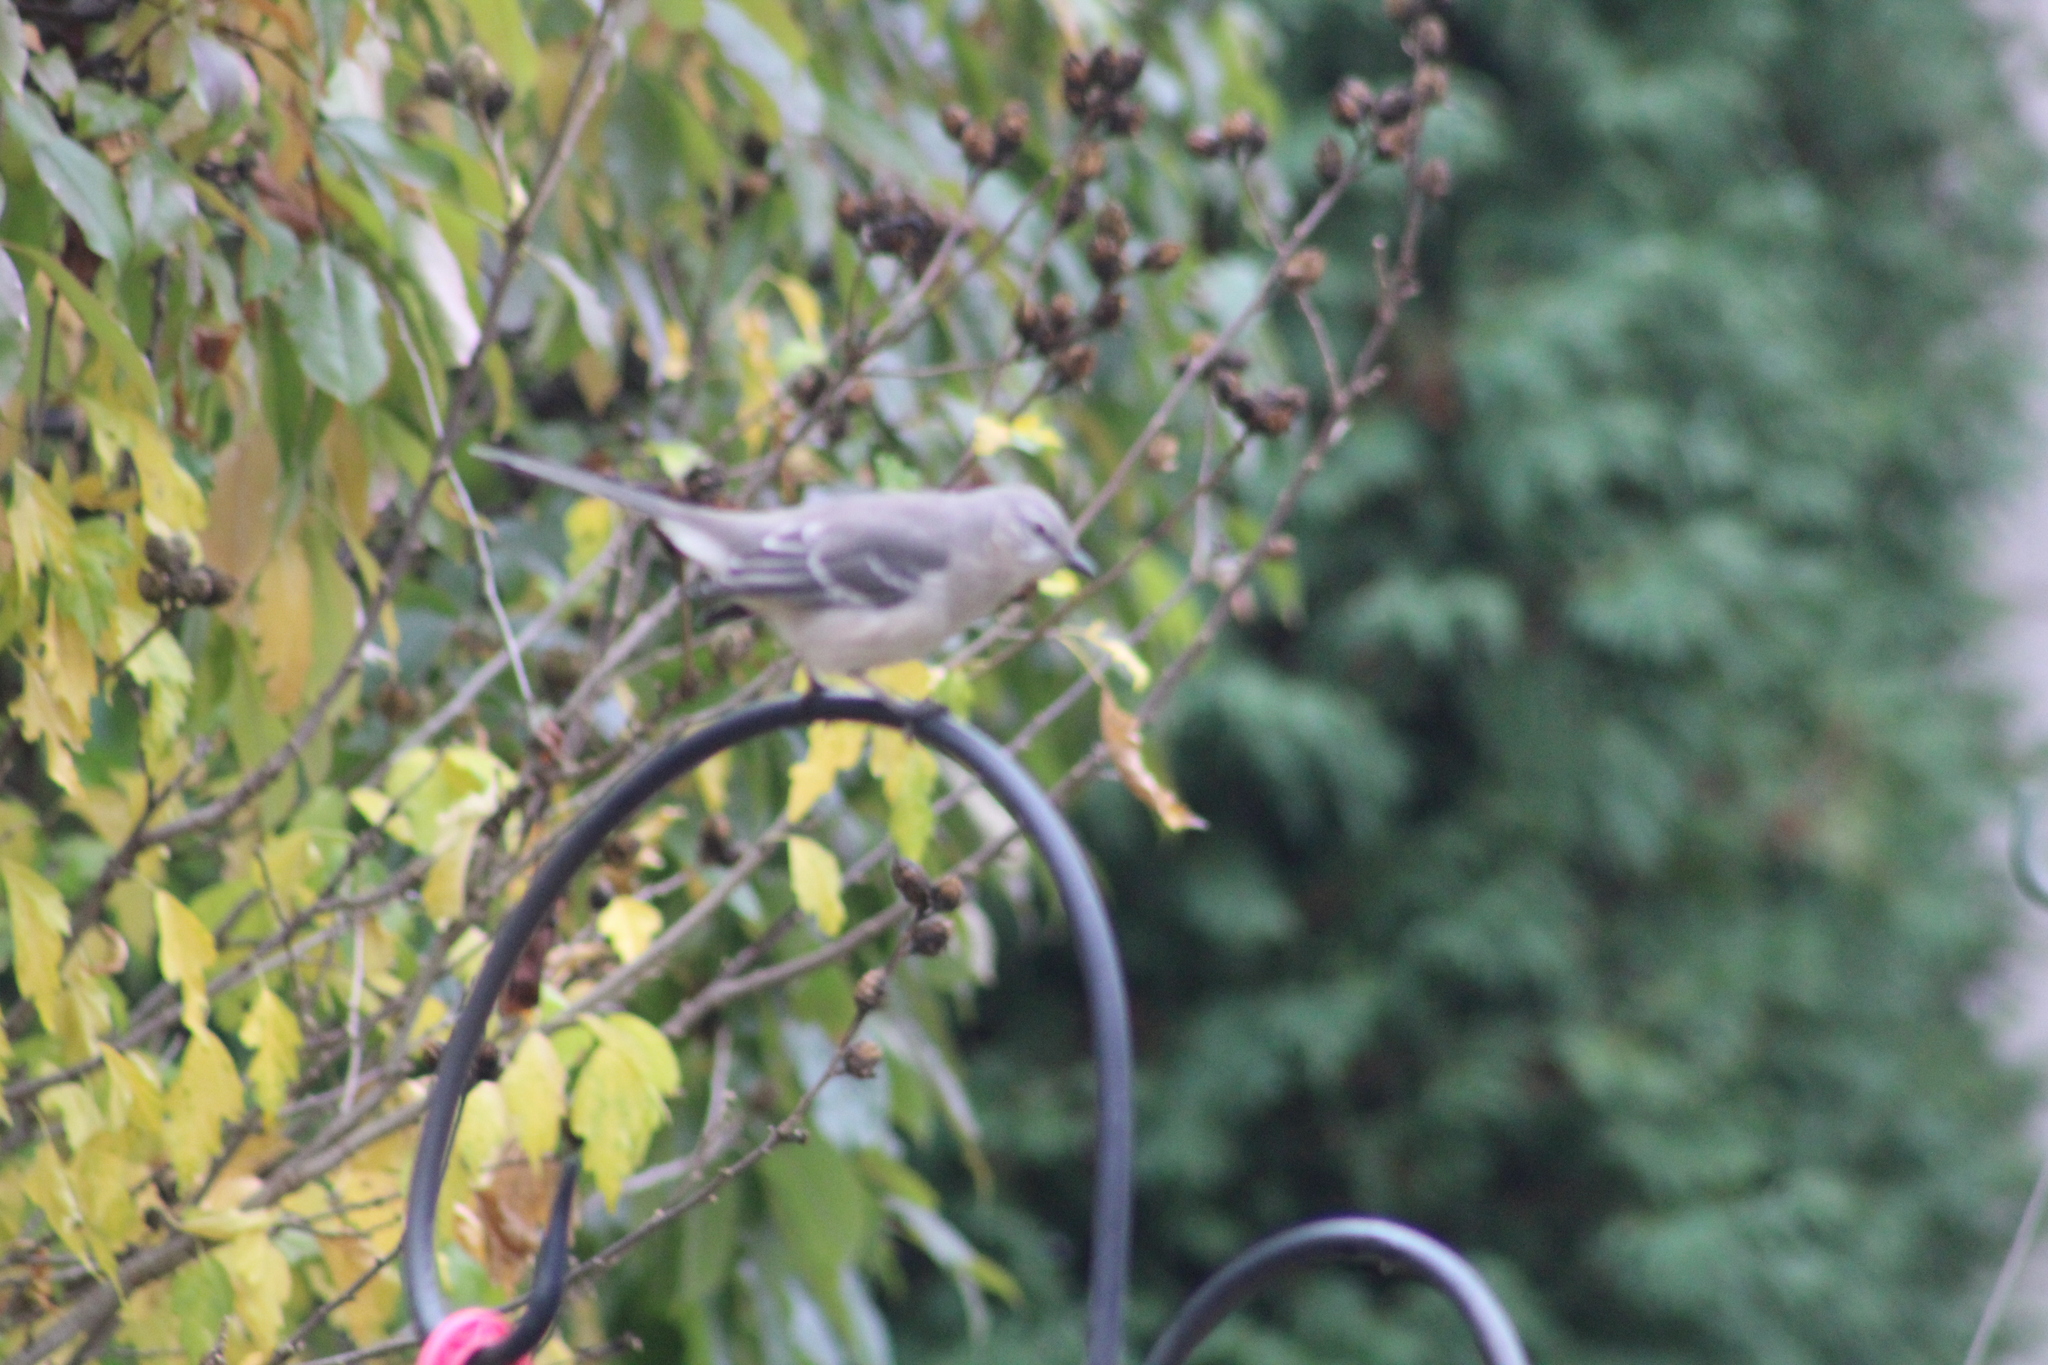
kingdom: Animalia
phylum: Chordata
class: Aves
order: Passeriformes
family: Mimidae
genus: Mimus
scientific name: Mimus polyglottos
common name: Northern mockingbird
